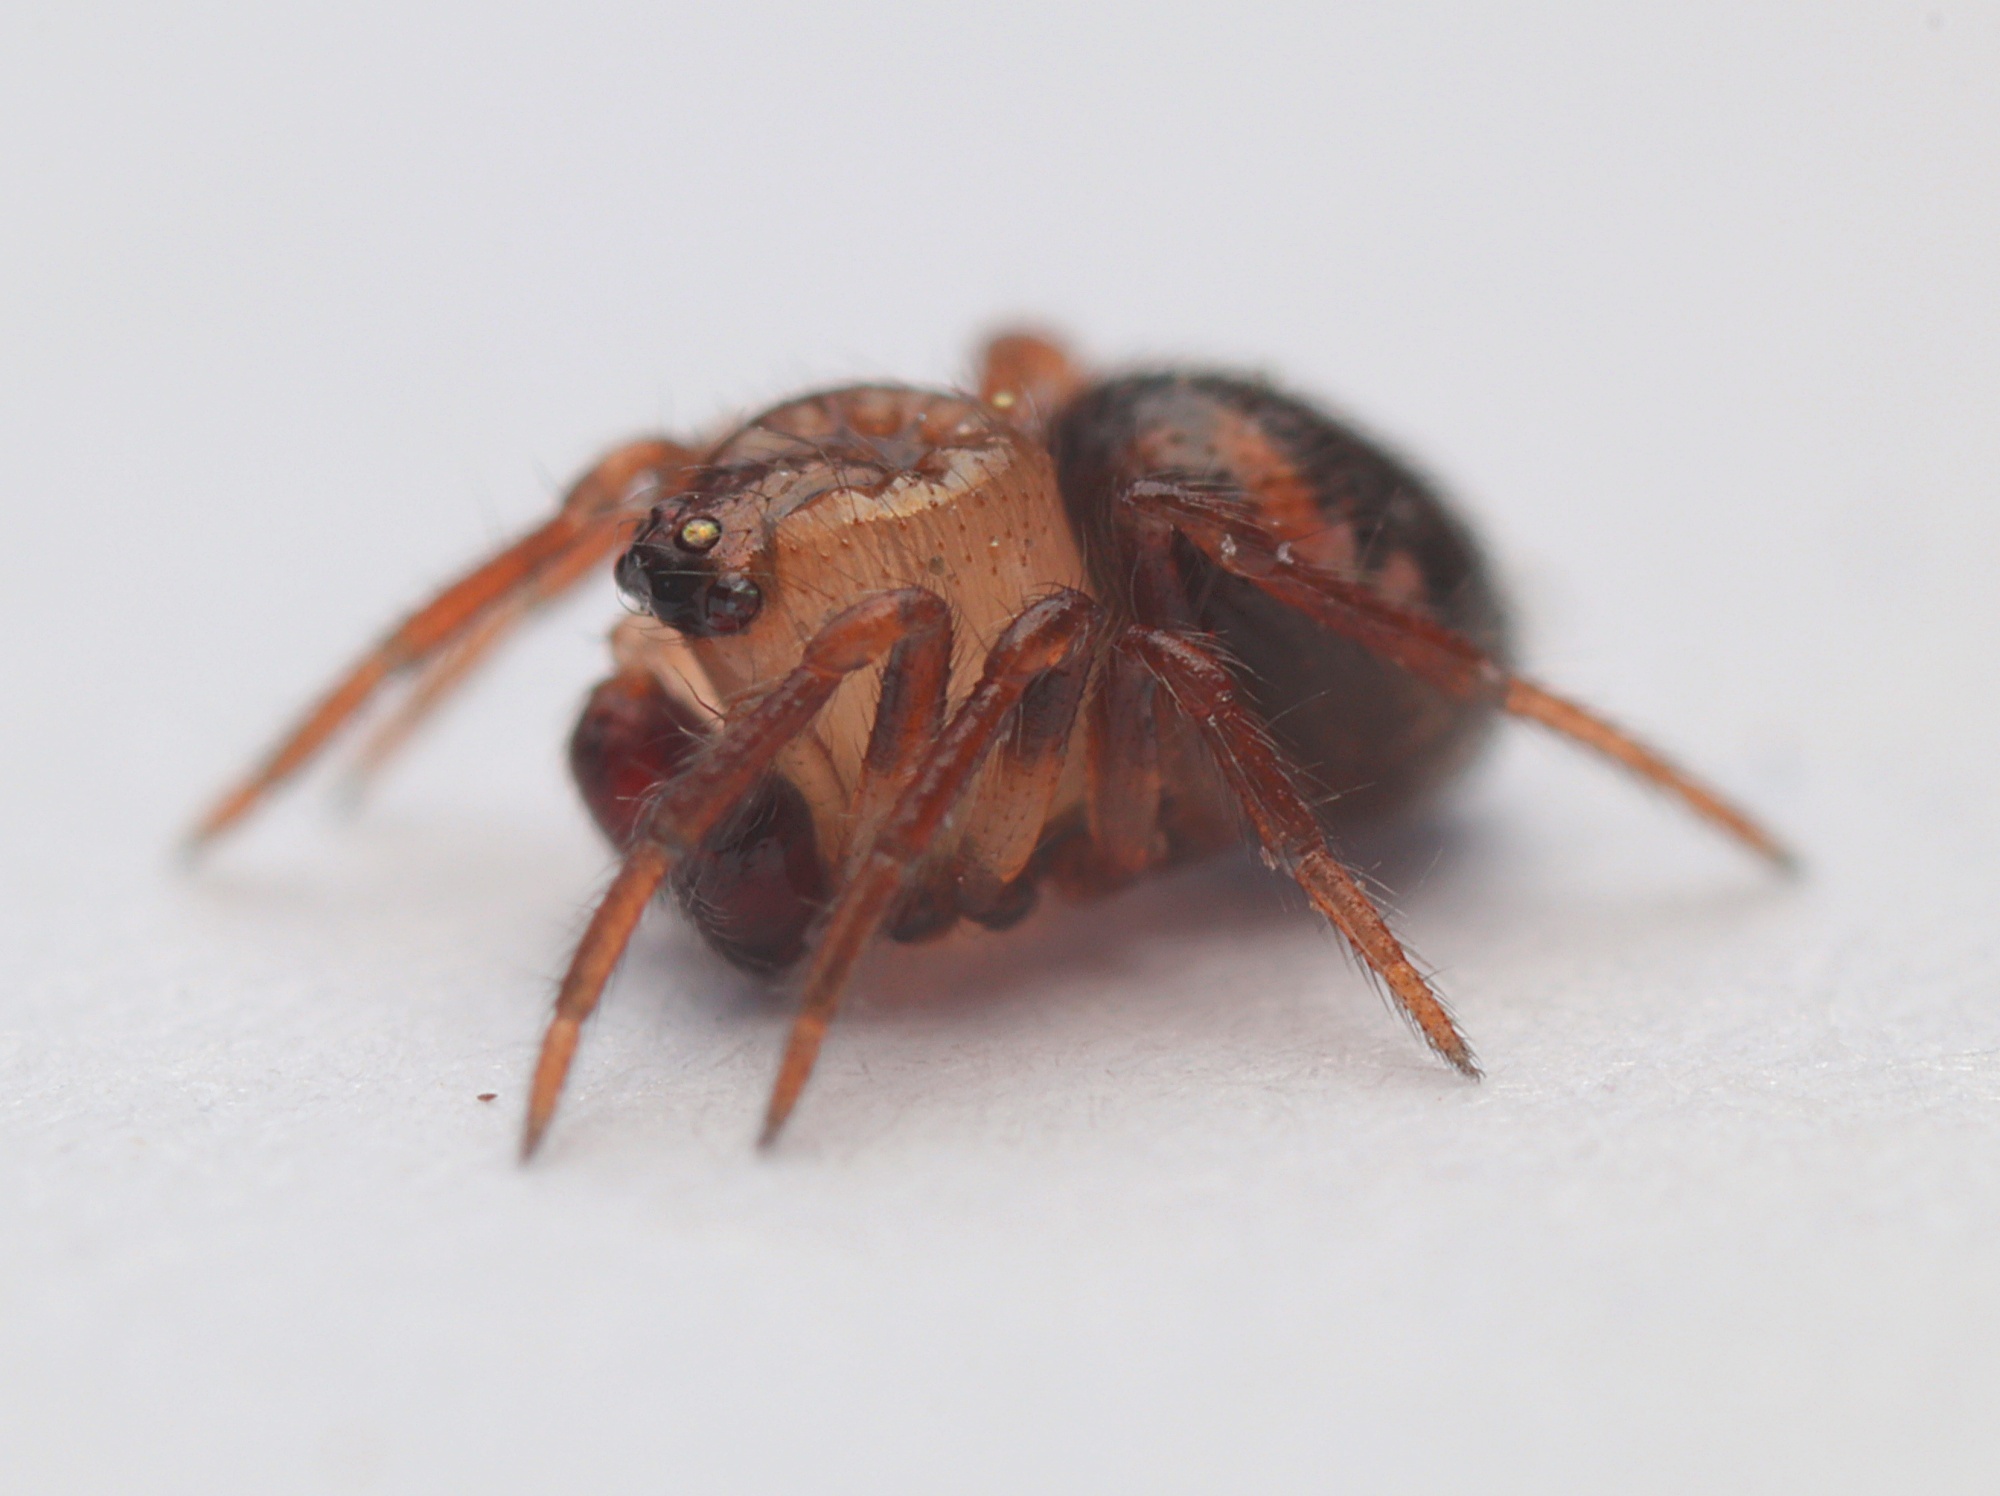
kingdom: Animalia
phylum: Arthropoda
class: Arachnida
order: Araneae
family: Theridiidae
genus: Phycosoma
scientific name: Phycosoma oecobioides
